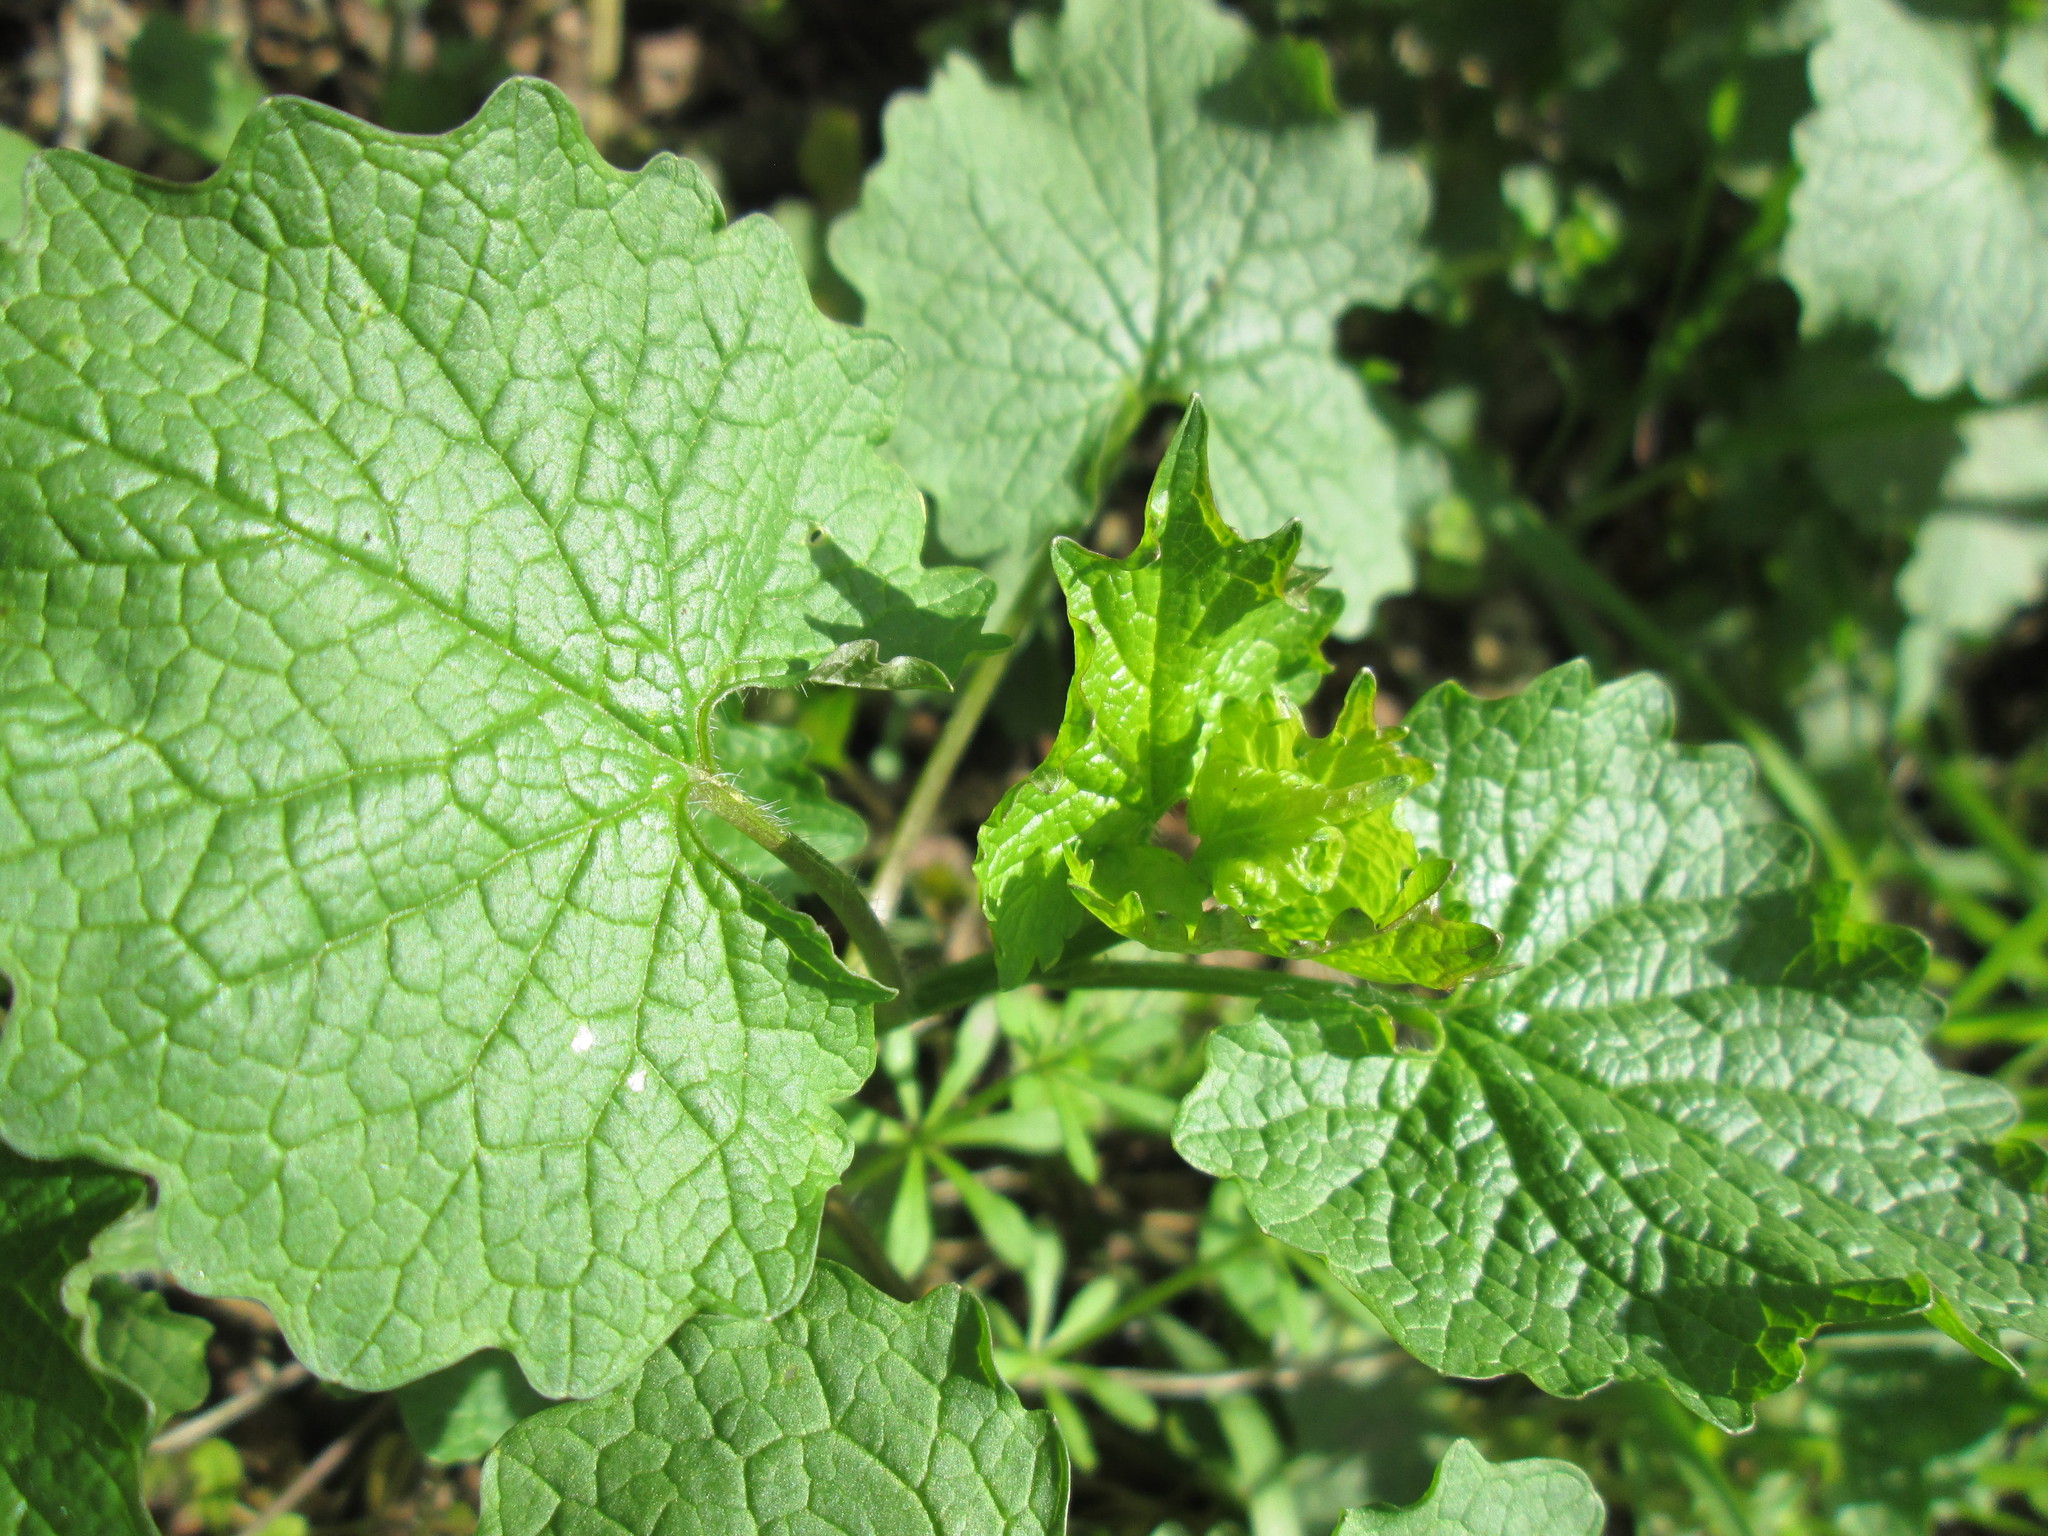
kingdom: Plantae
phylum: Tracheophyta
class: Magnoliopsida
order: Brassicales
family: Brassicaceae
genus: Alliaria
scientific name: Alliaria petiolata
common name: Garlic mustard
